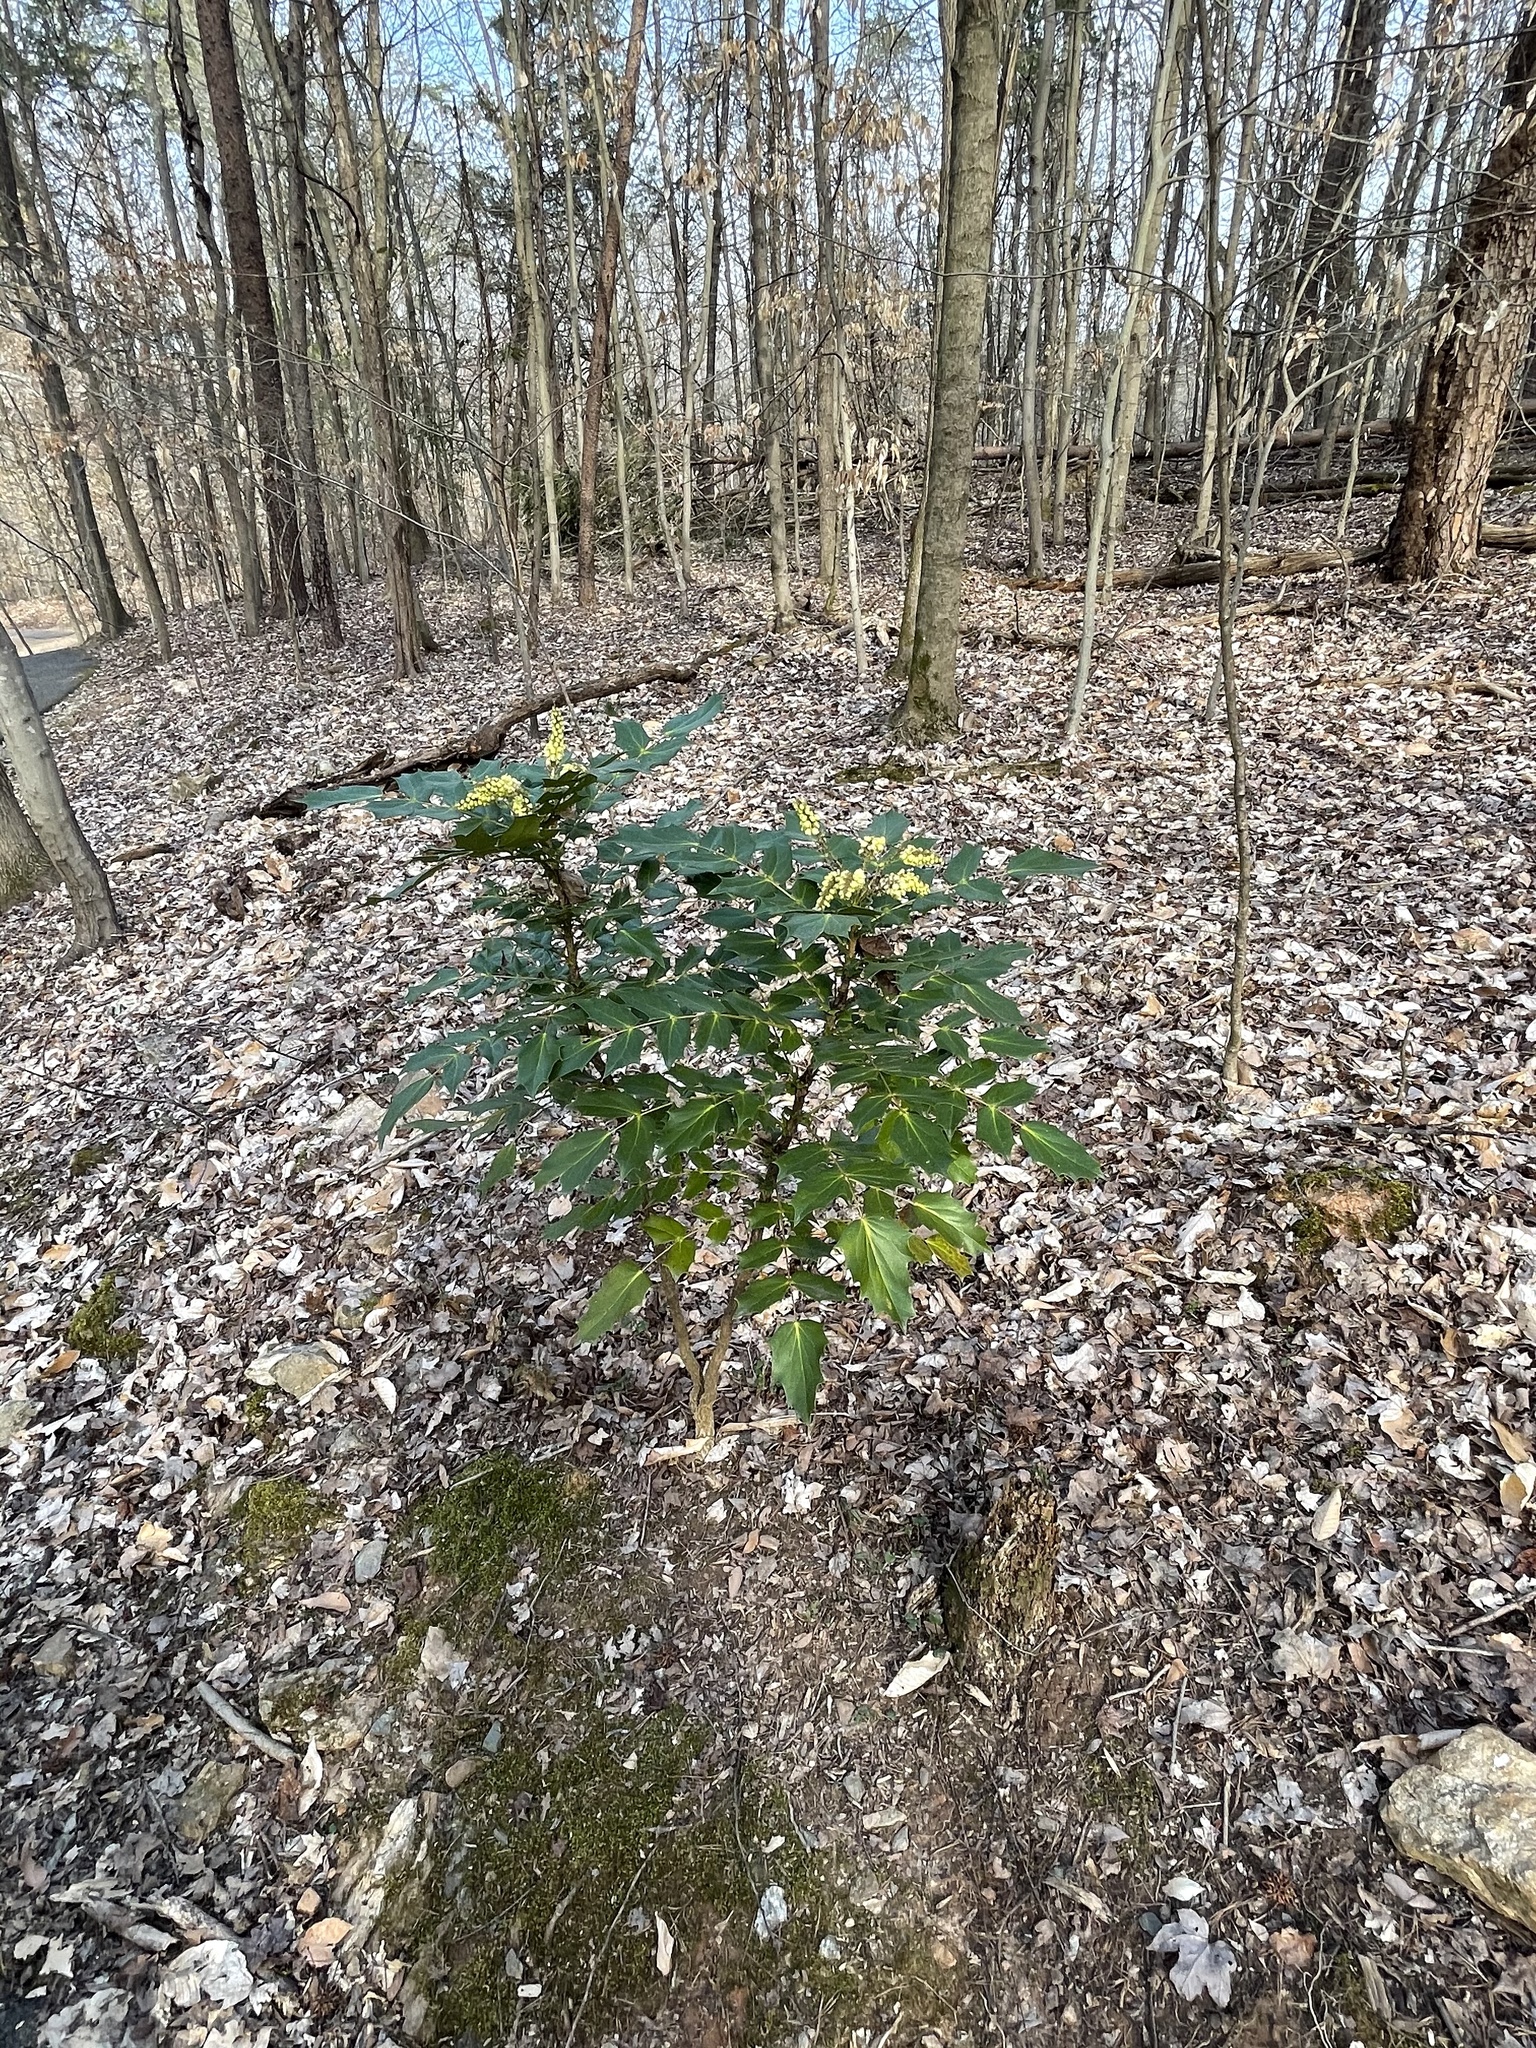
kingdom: Plantae
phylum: Tracheophyta
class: Magnoliopsida
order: Ranunculales
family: Berberidaceae
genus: Mahonia
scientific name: Mahonia bealei
